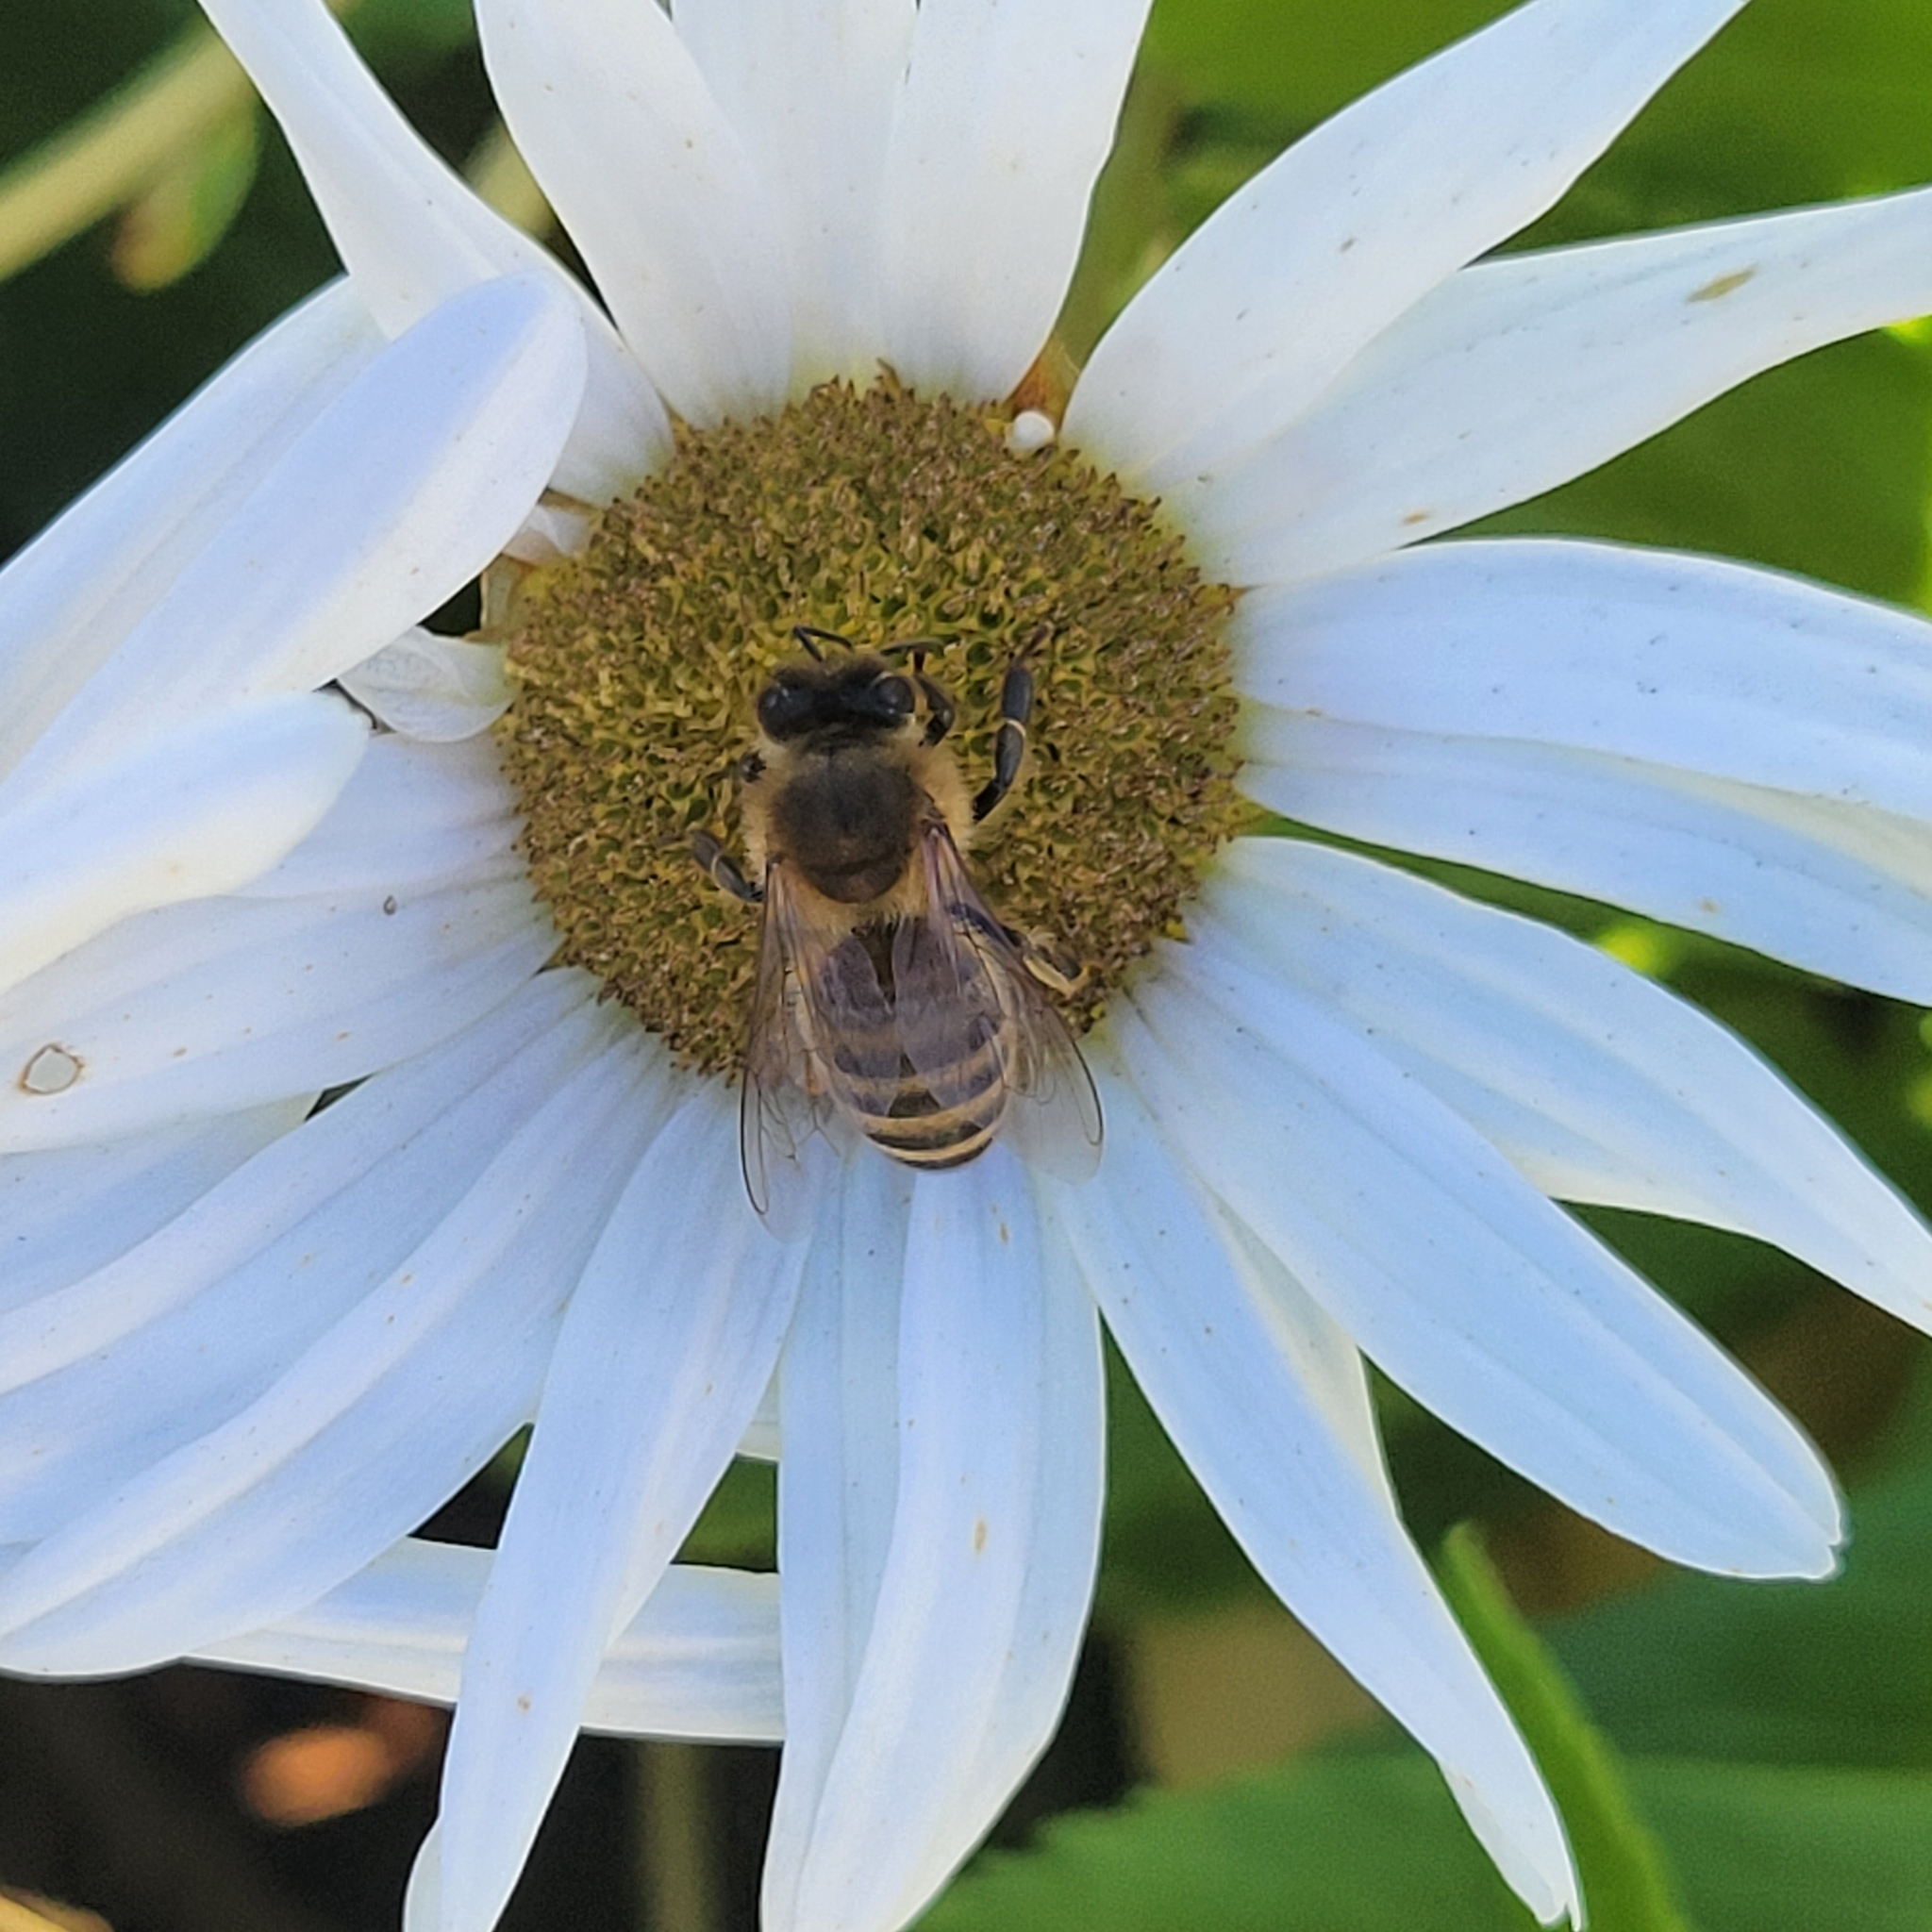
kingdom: Animalia
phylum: Arthropoda
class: Insecta
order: Hymenoptera
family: Apidae
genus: Apis
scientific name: Apis mellifera
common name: Honey bee
